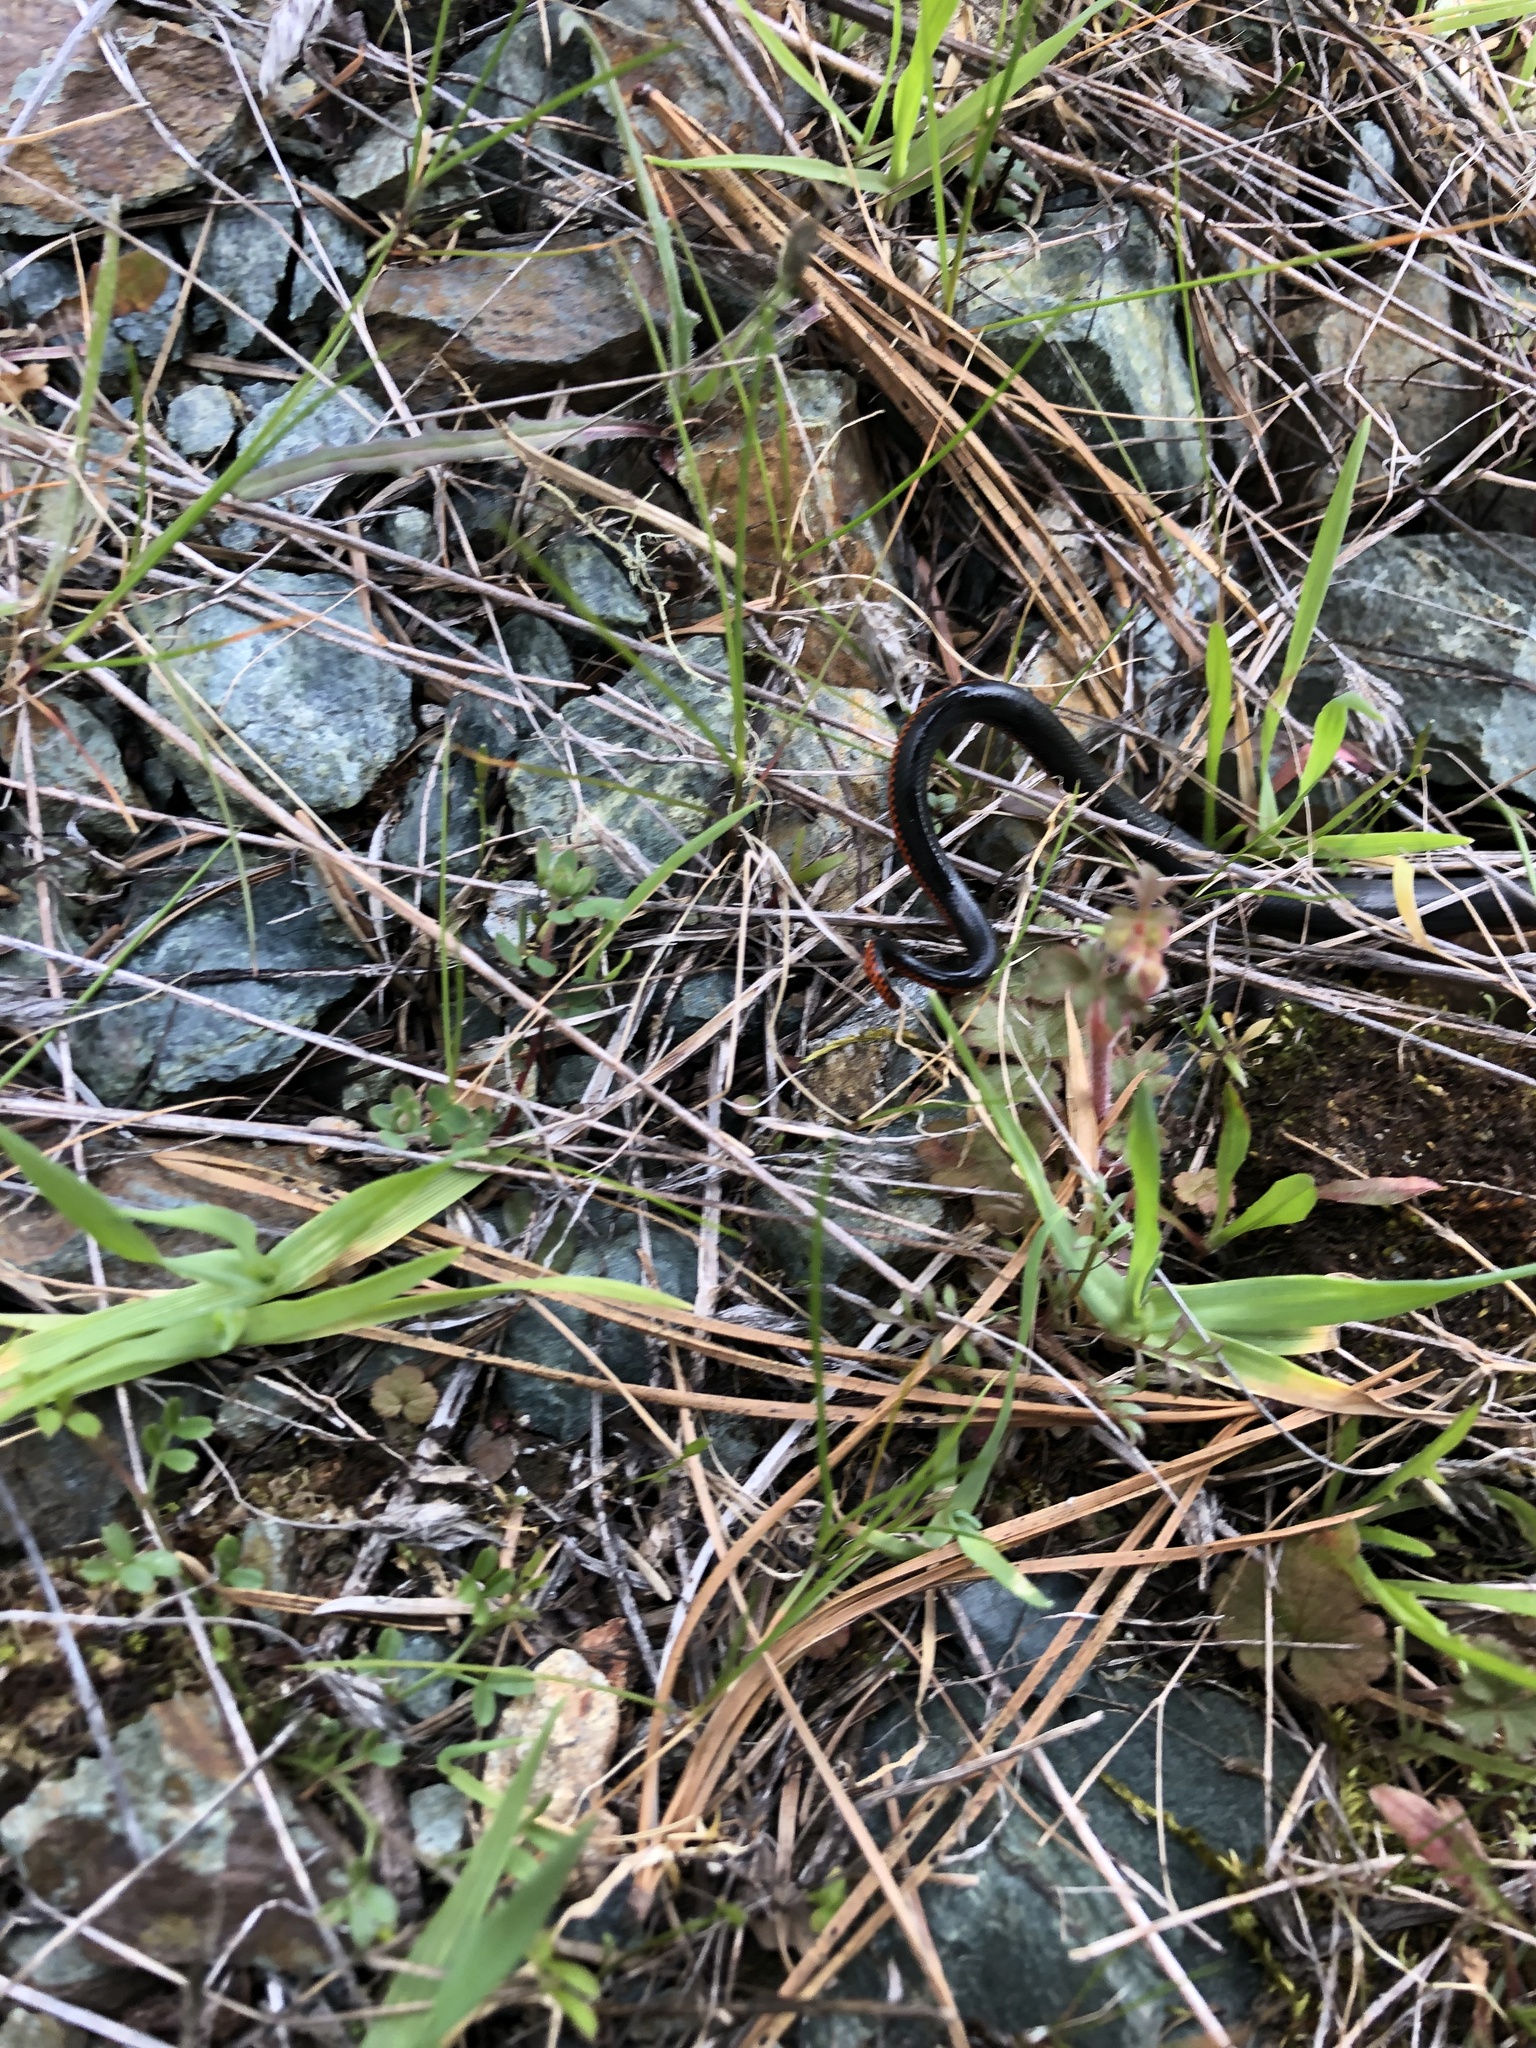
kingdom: Animalia
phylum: Chordata
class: Squamata
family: Colubridae
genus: Diadophis
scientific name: Diadophis punctatus
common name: Ringneck snake
